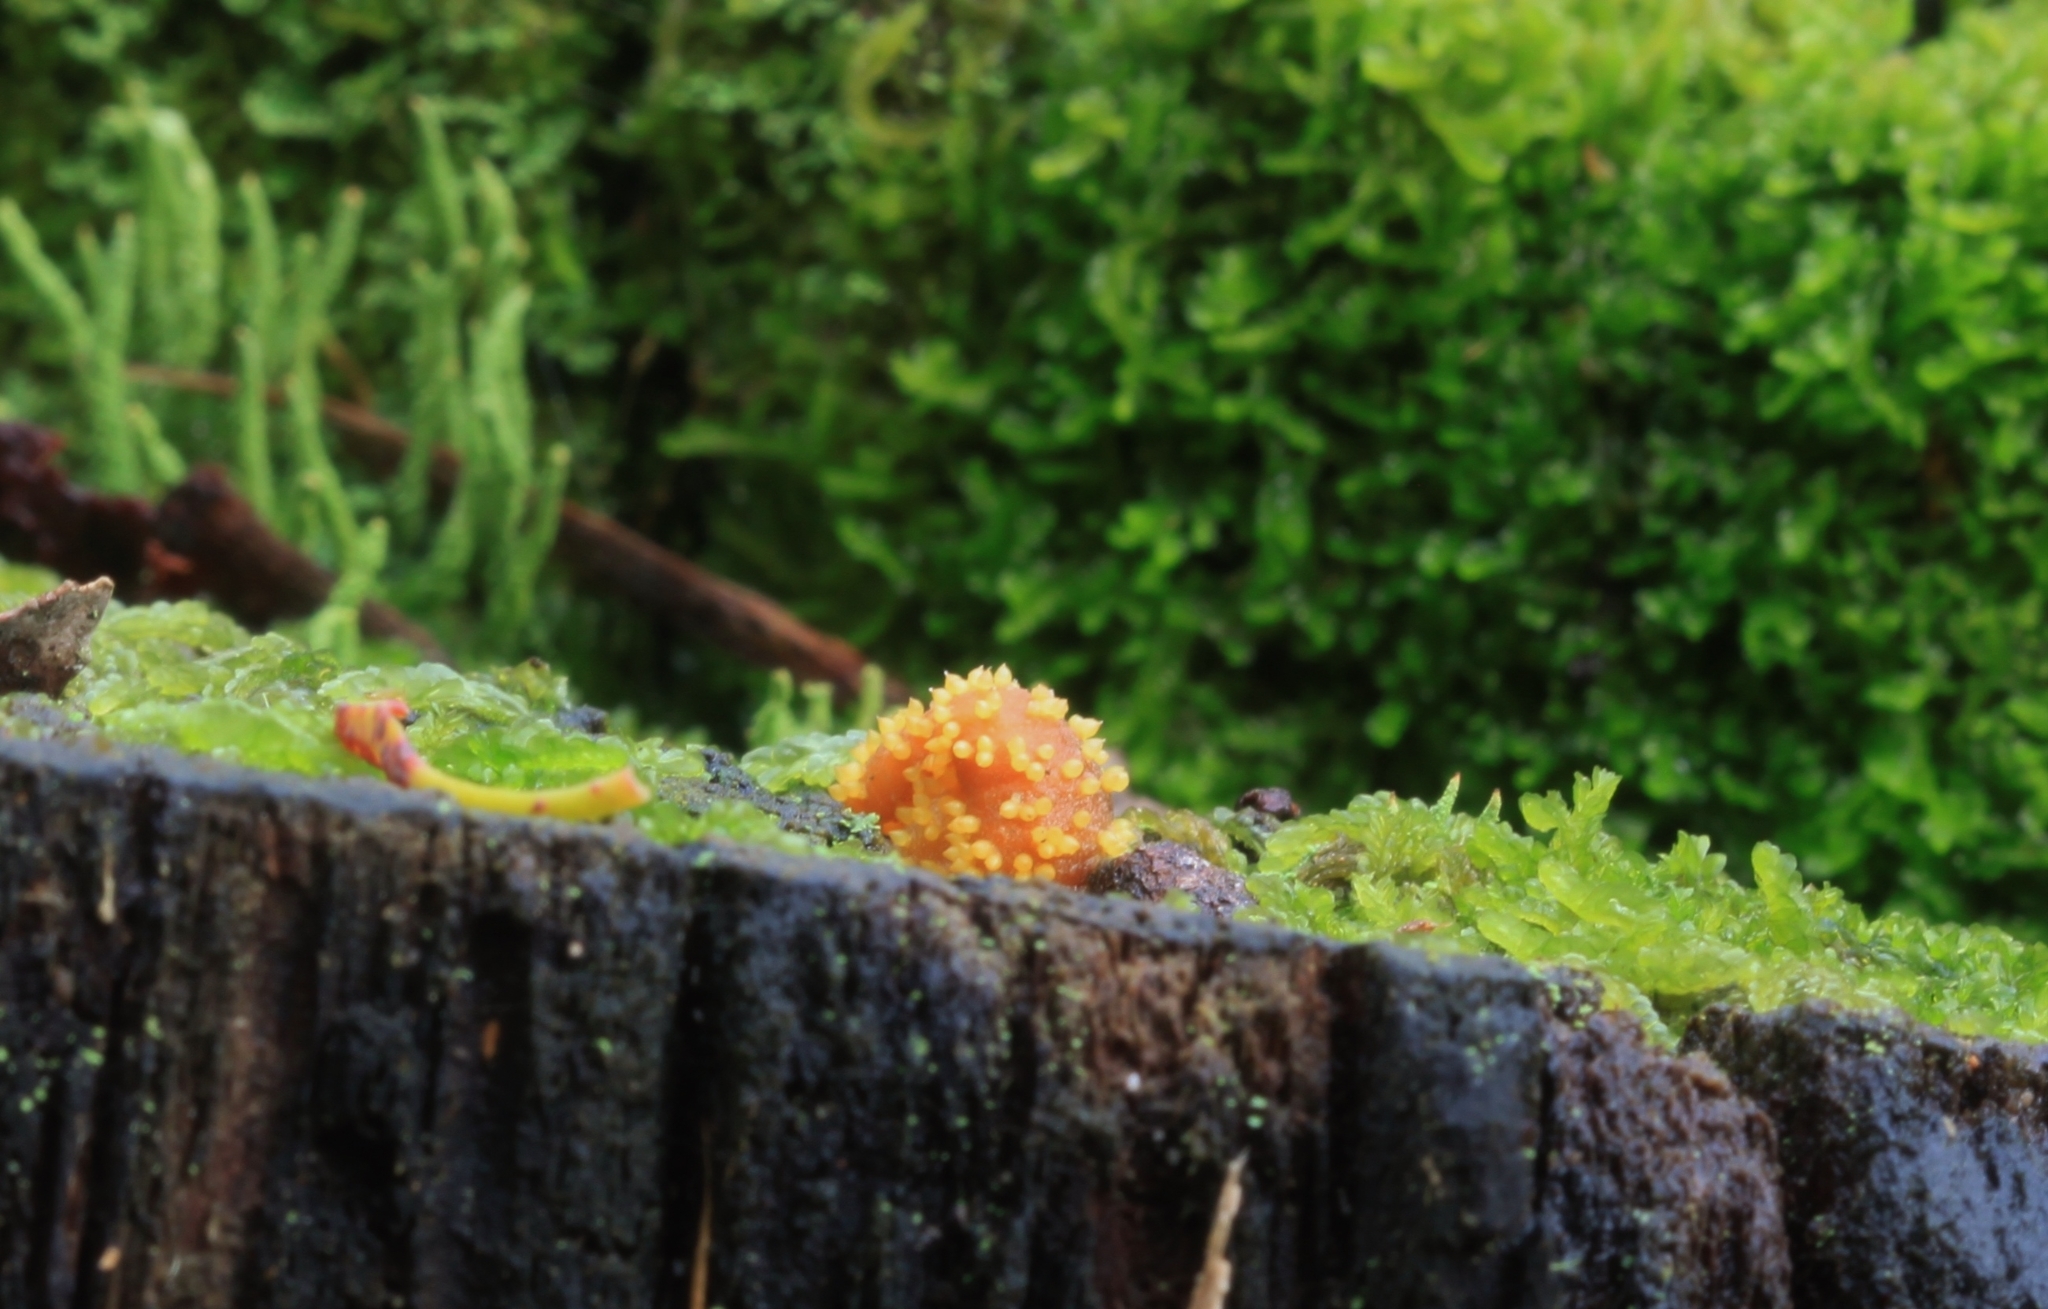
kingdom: Fungi
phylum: Ascomycota
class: Sordariomycetes
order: Hypocreales
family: Clavicipitaceae
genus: Neobarya
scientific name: Neobarya agaricicola
